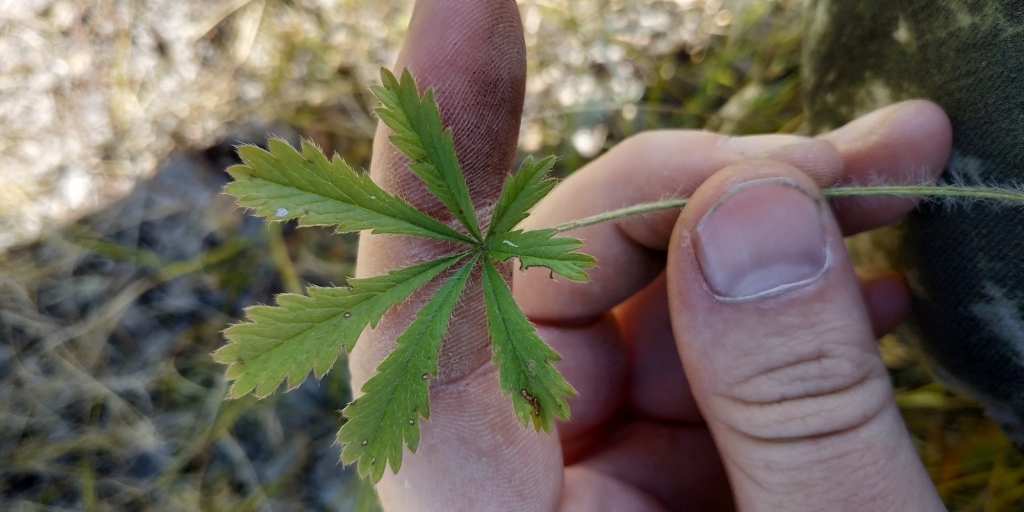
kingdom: Plantae
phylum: Tracheophyta
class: Magnoliopsida
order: Rosales
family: Rosaceae
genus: Potentilla
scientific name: Potentilla humifusa
